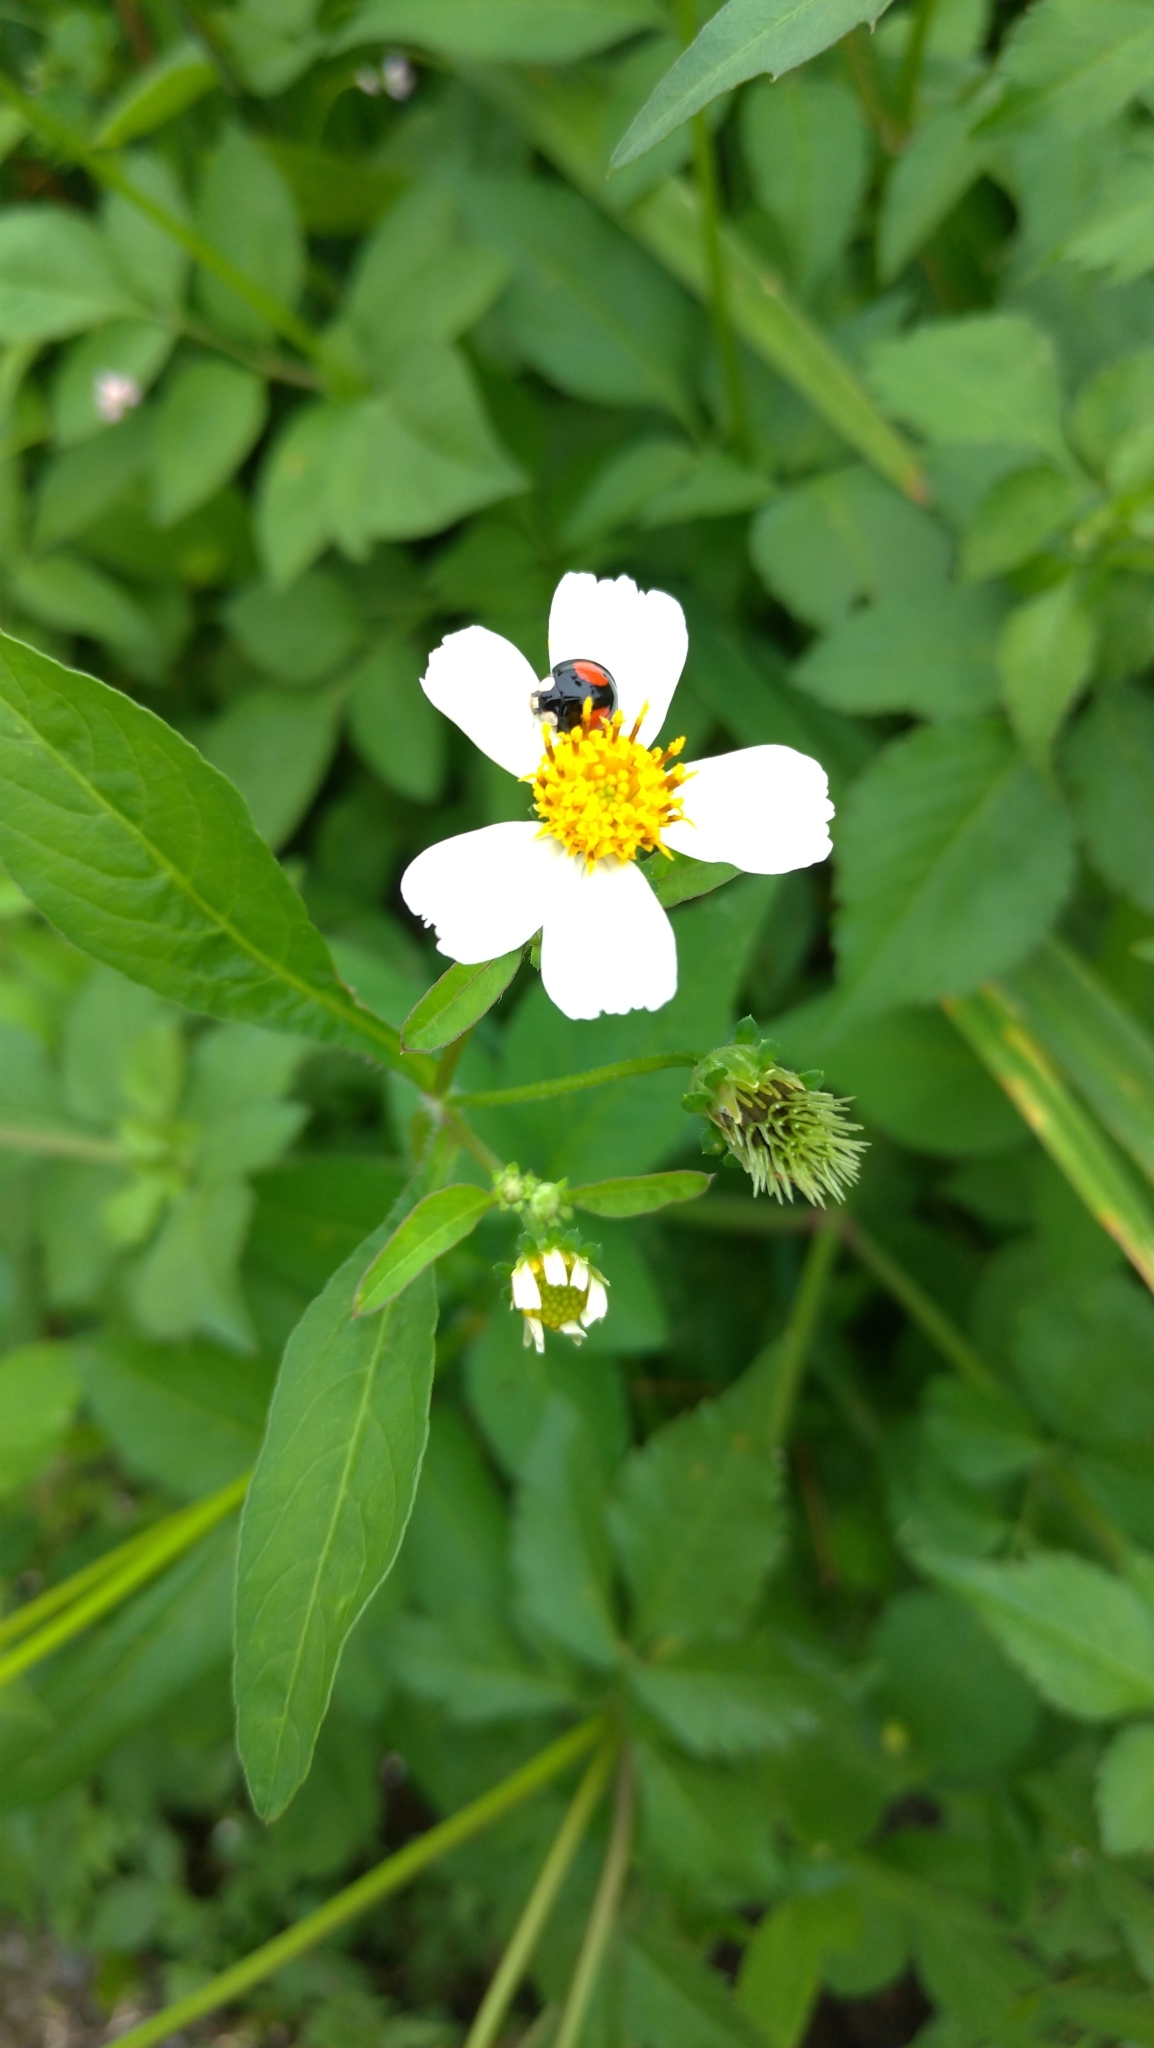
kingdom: Animalia
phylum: Arthropoda
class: Insecta
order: Coleoptera
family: Coccinellidae
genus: Coelophora
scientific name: Coelophora saucia
